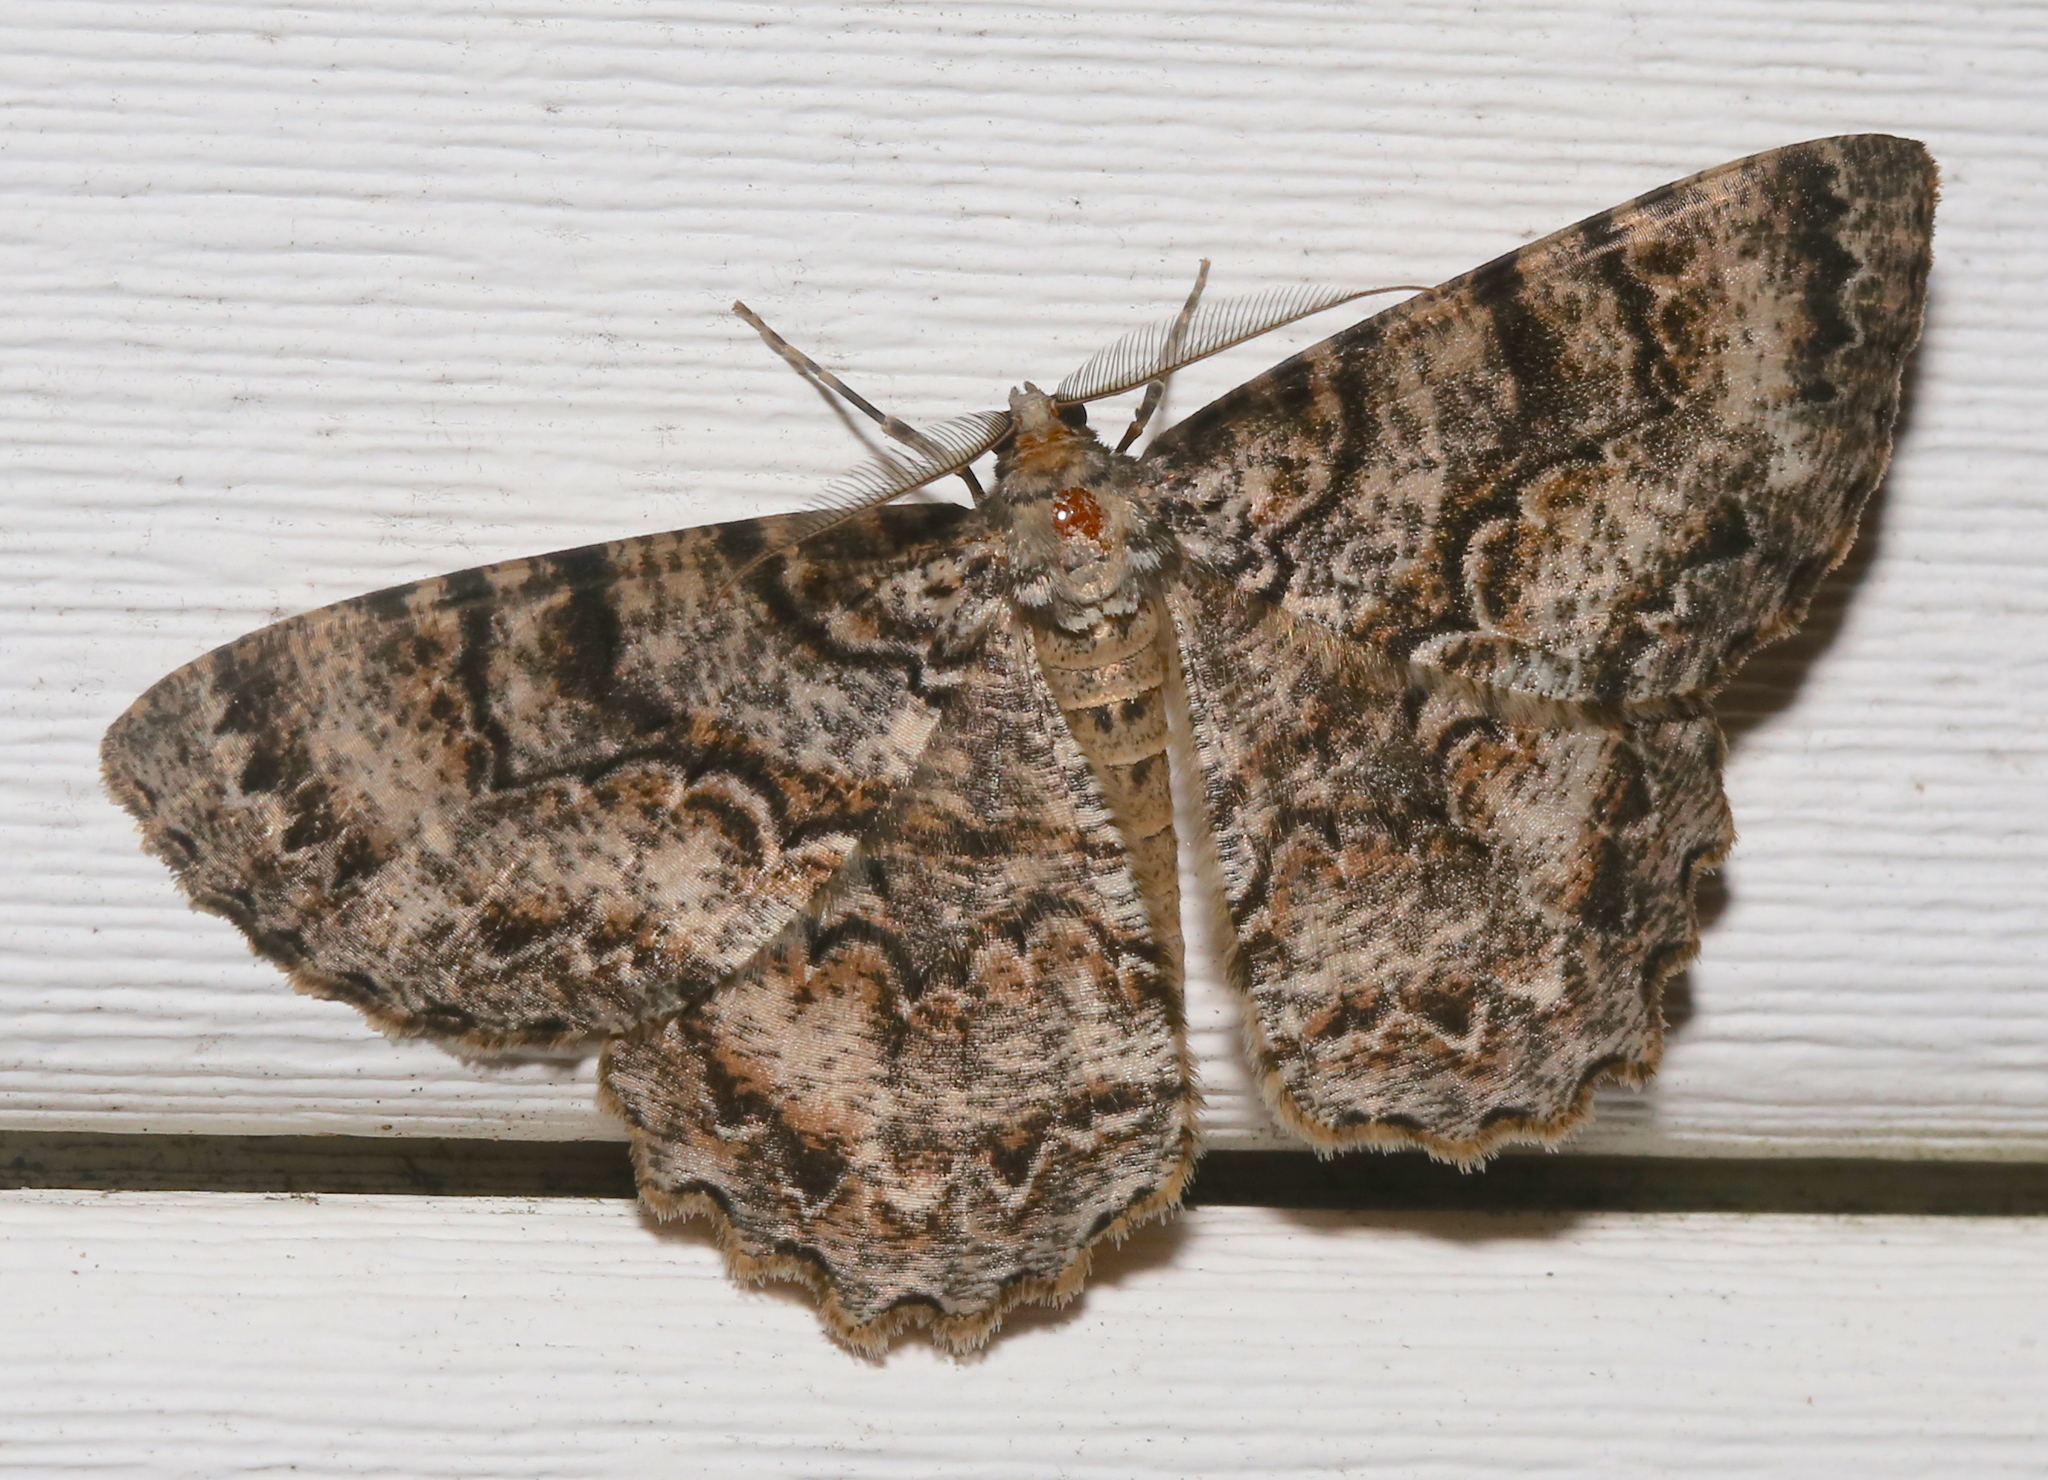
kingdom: Animalia
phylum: Arthropoda
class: Insecta
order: Lepidoptera
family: Geometridae
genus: Epimecis
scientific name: Epimecis hortaria
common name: Tulip-tree beauty
